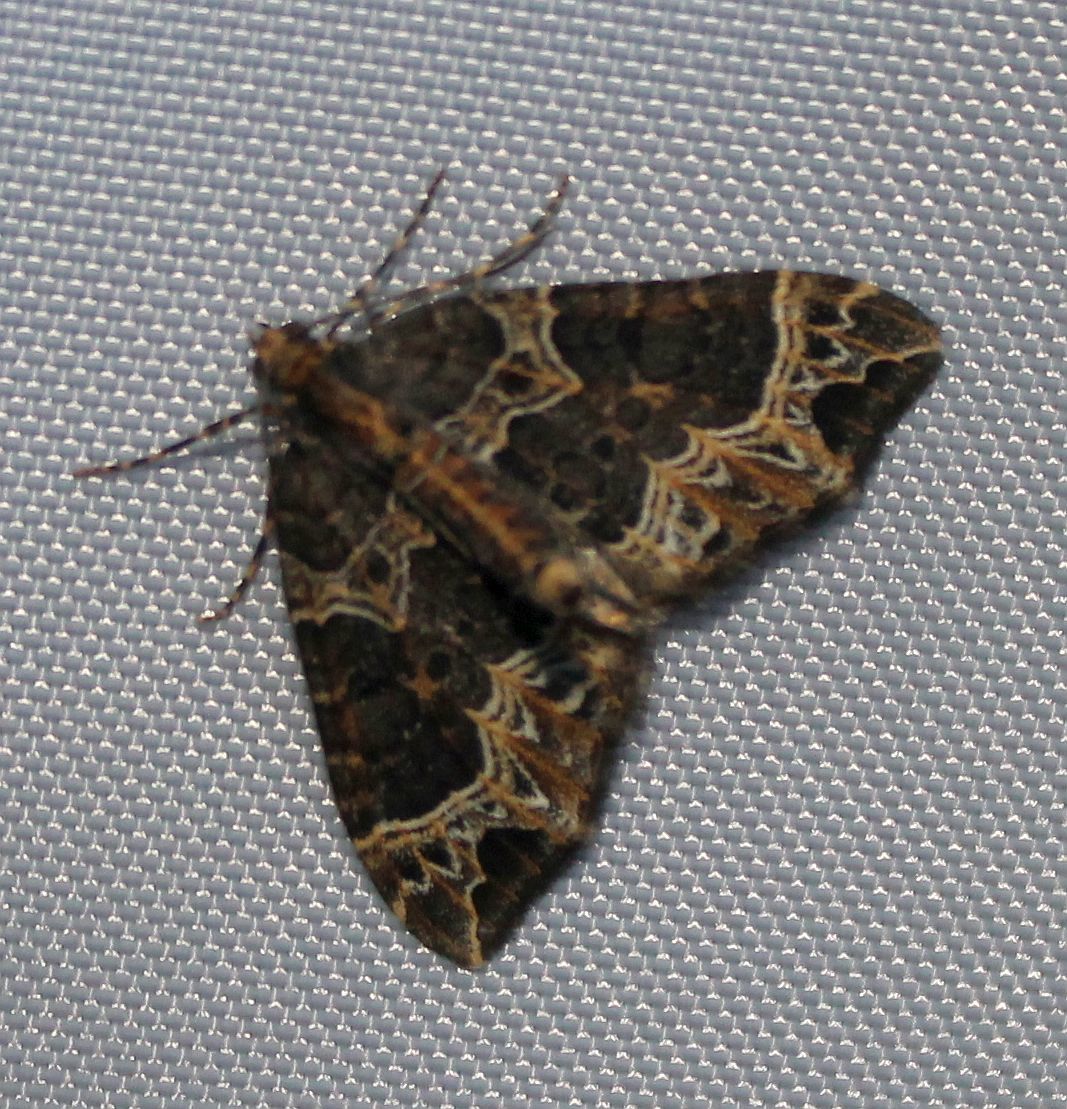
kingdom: Animalia
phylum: Arthropoda
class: Insecta
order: Lepidoptera
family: Geometridae
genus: Ecliptopera
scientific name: Ecliptopera silaceata
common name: Small phoenix
